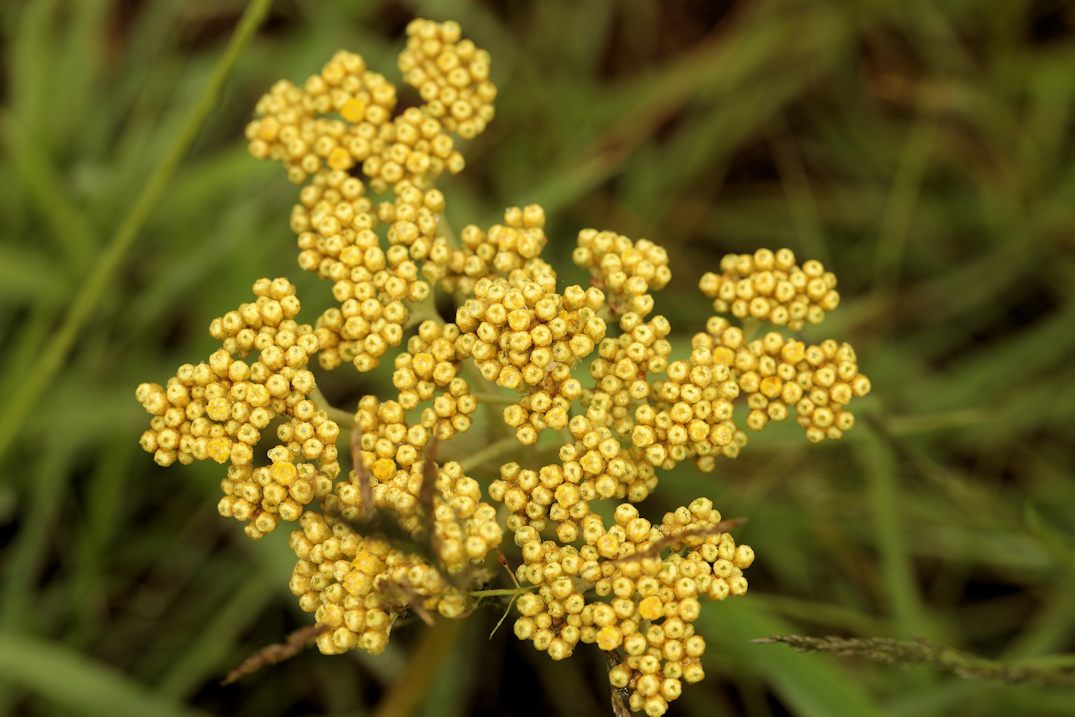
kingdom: Plantae
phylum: Tracheophyta
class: Magnoliopsida
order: Asterales
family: Asteraceae
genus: Helichrysum
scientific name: Helichrysum nudifolium
